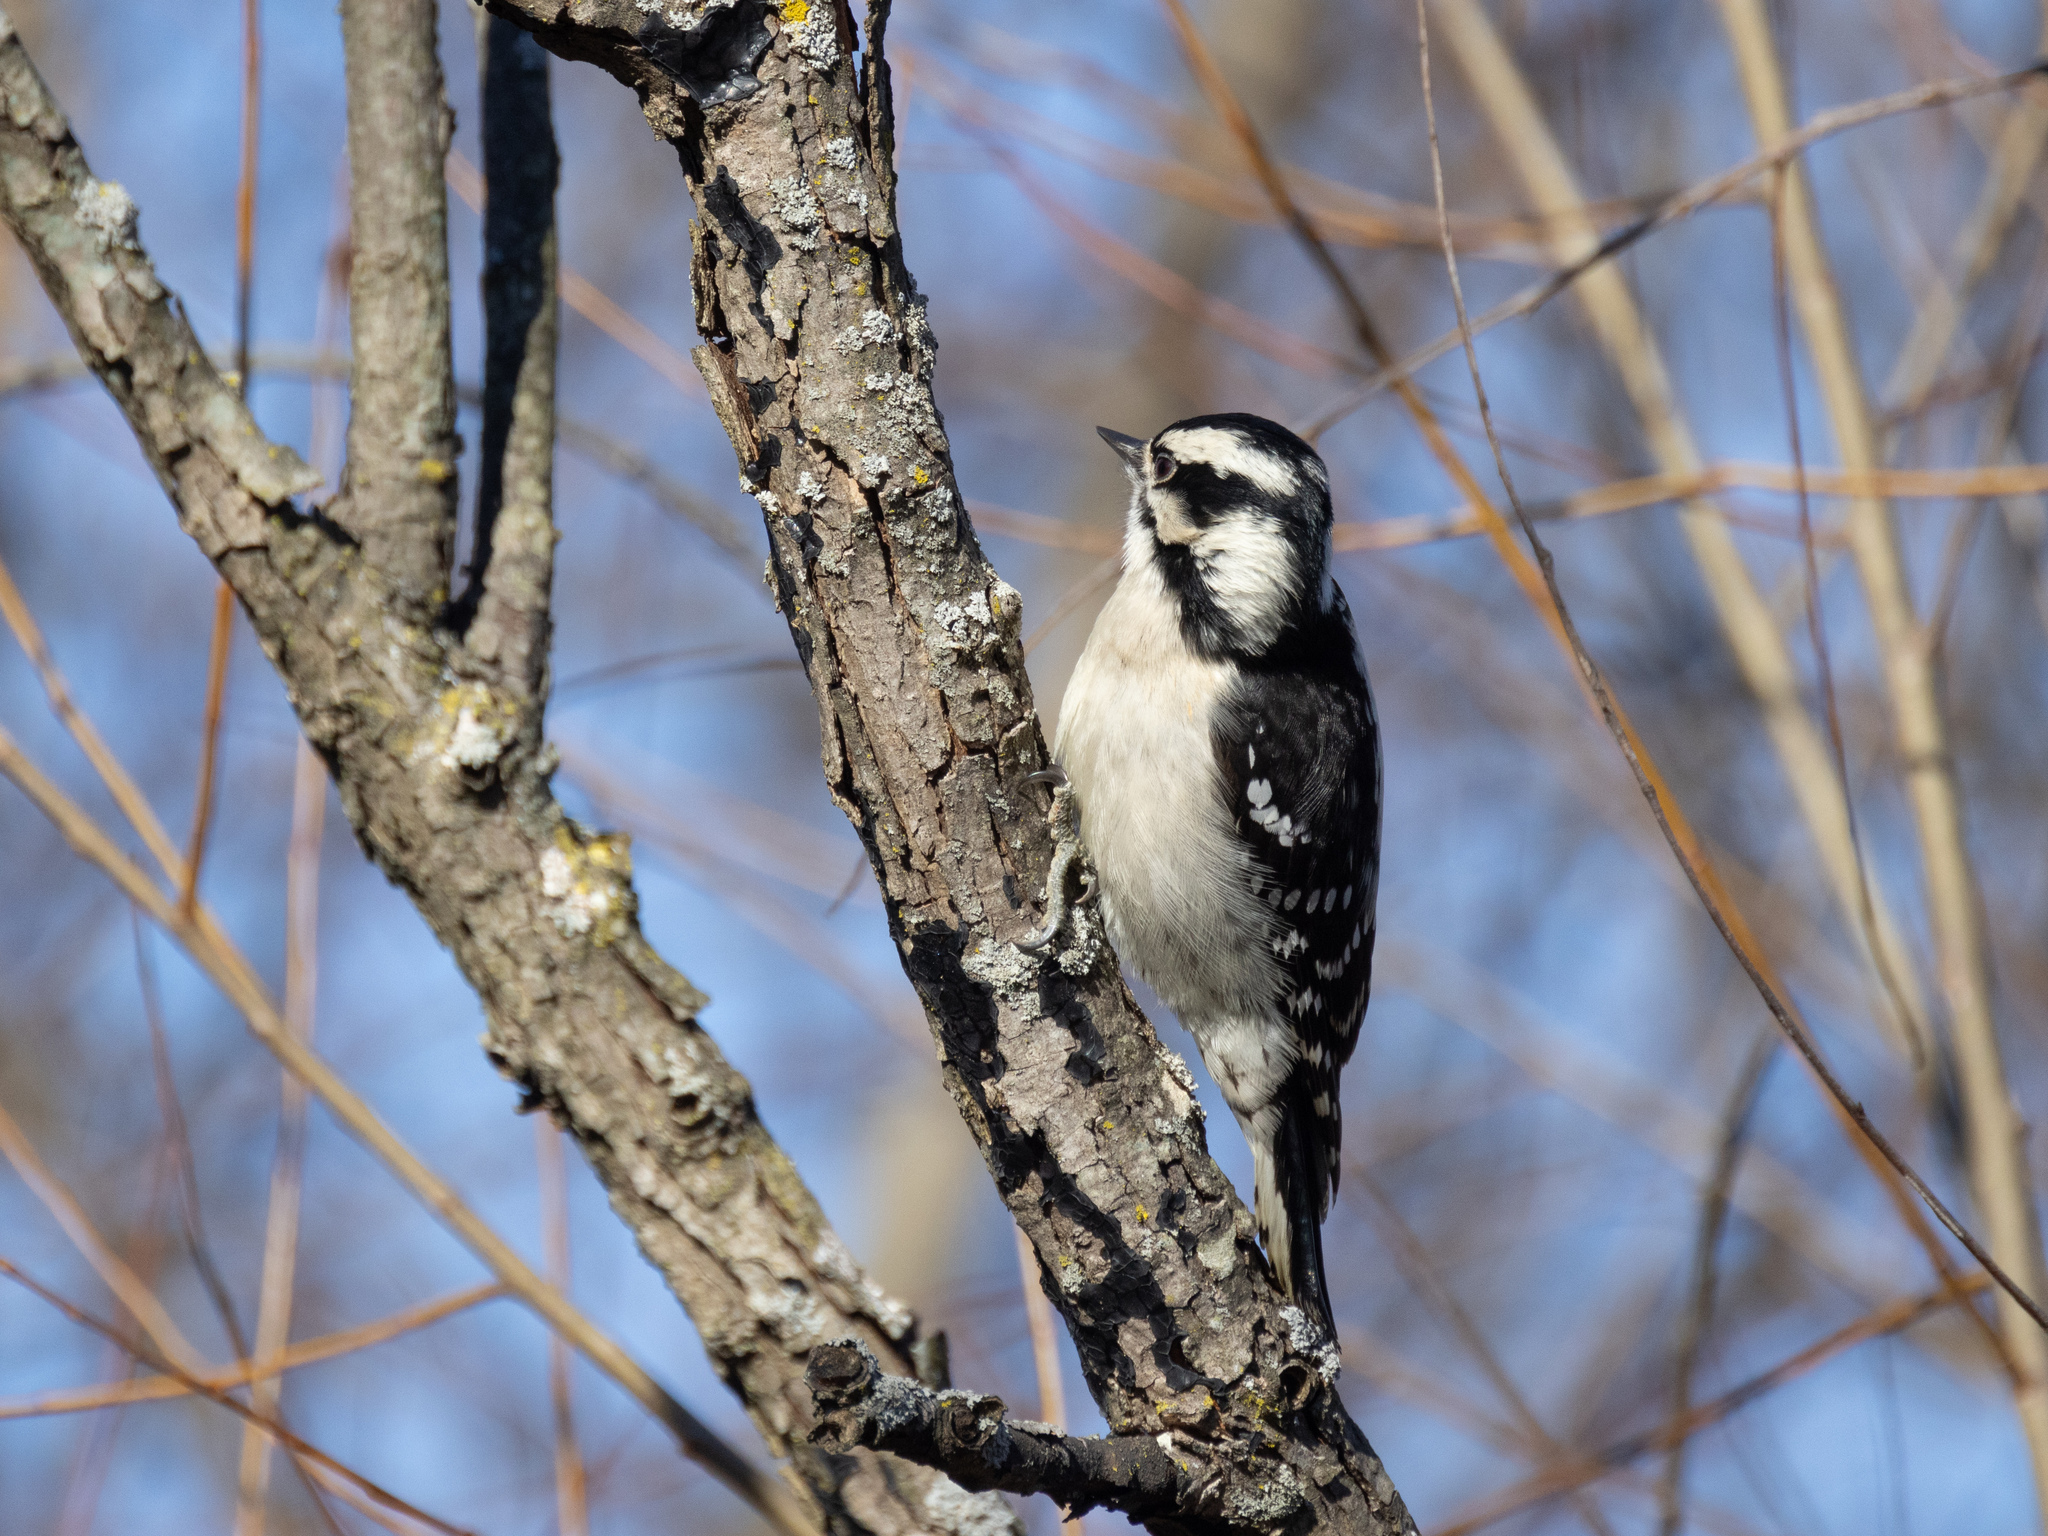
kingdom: Animalia
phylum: Chordata
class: Aves
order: Piciformes
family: Picidae
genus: Dryobates
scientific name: Dryobates pubescens
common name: Downy woodpecker
